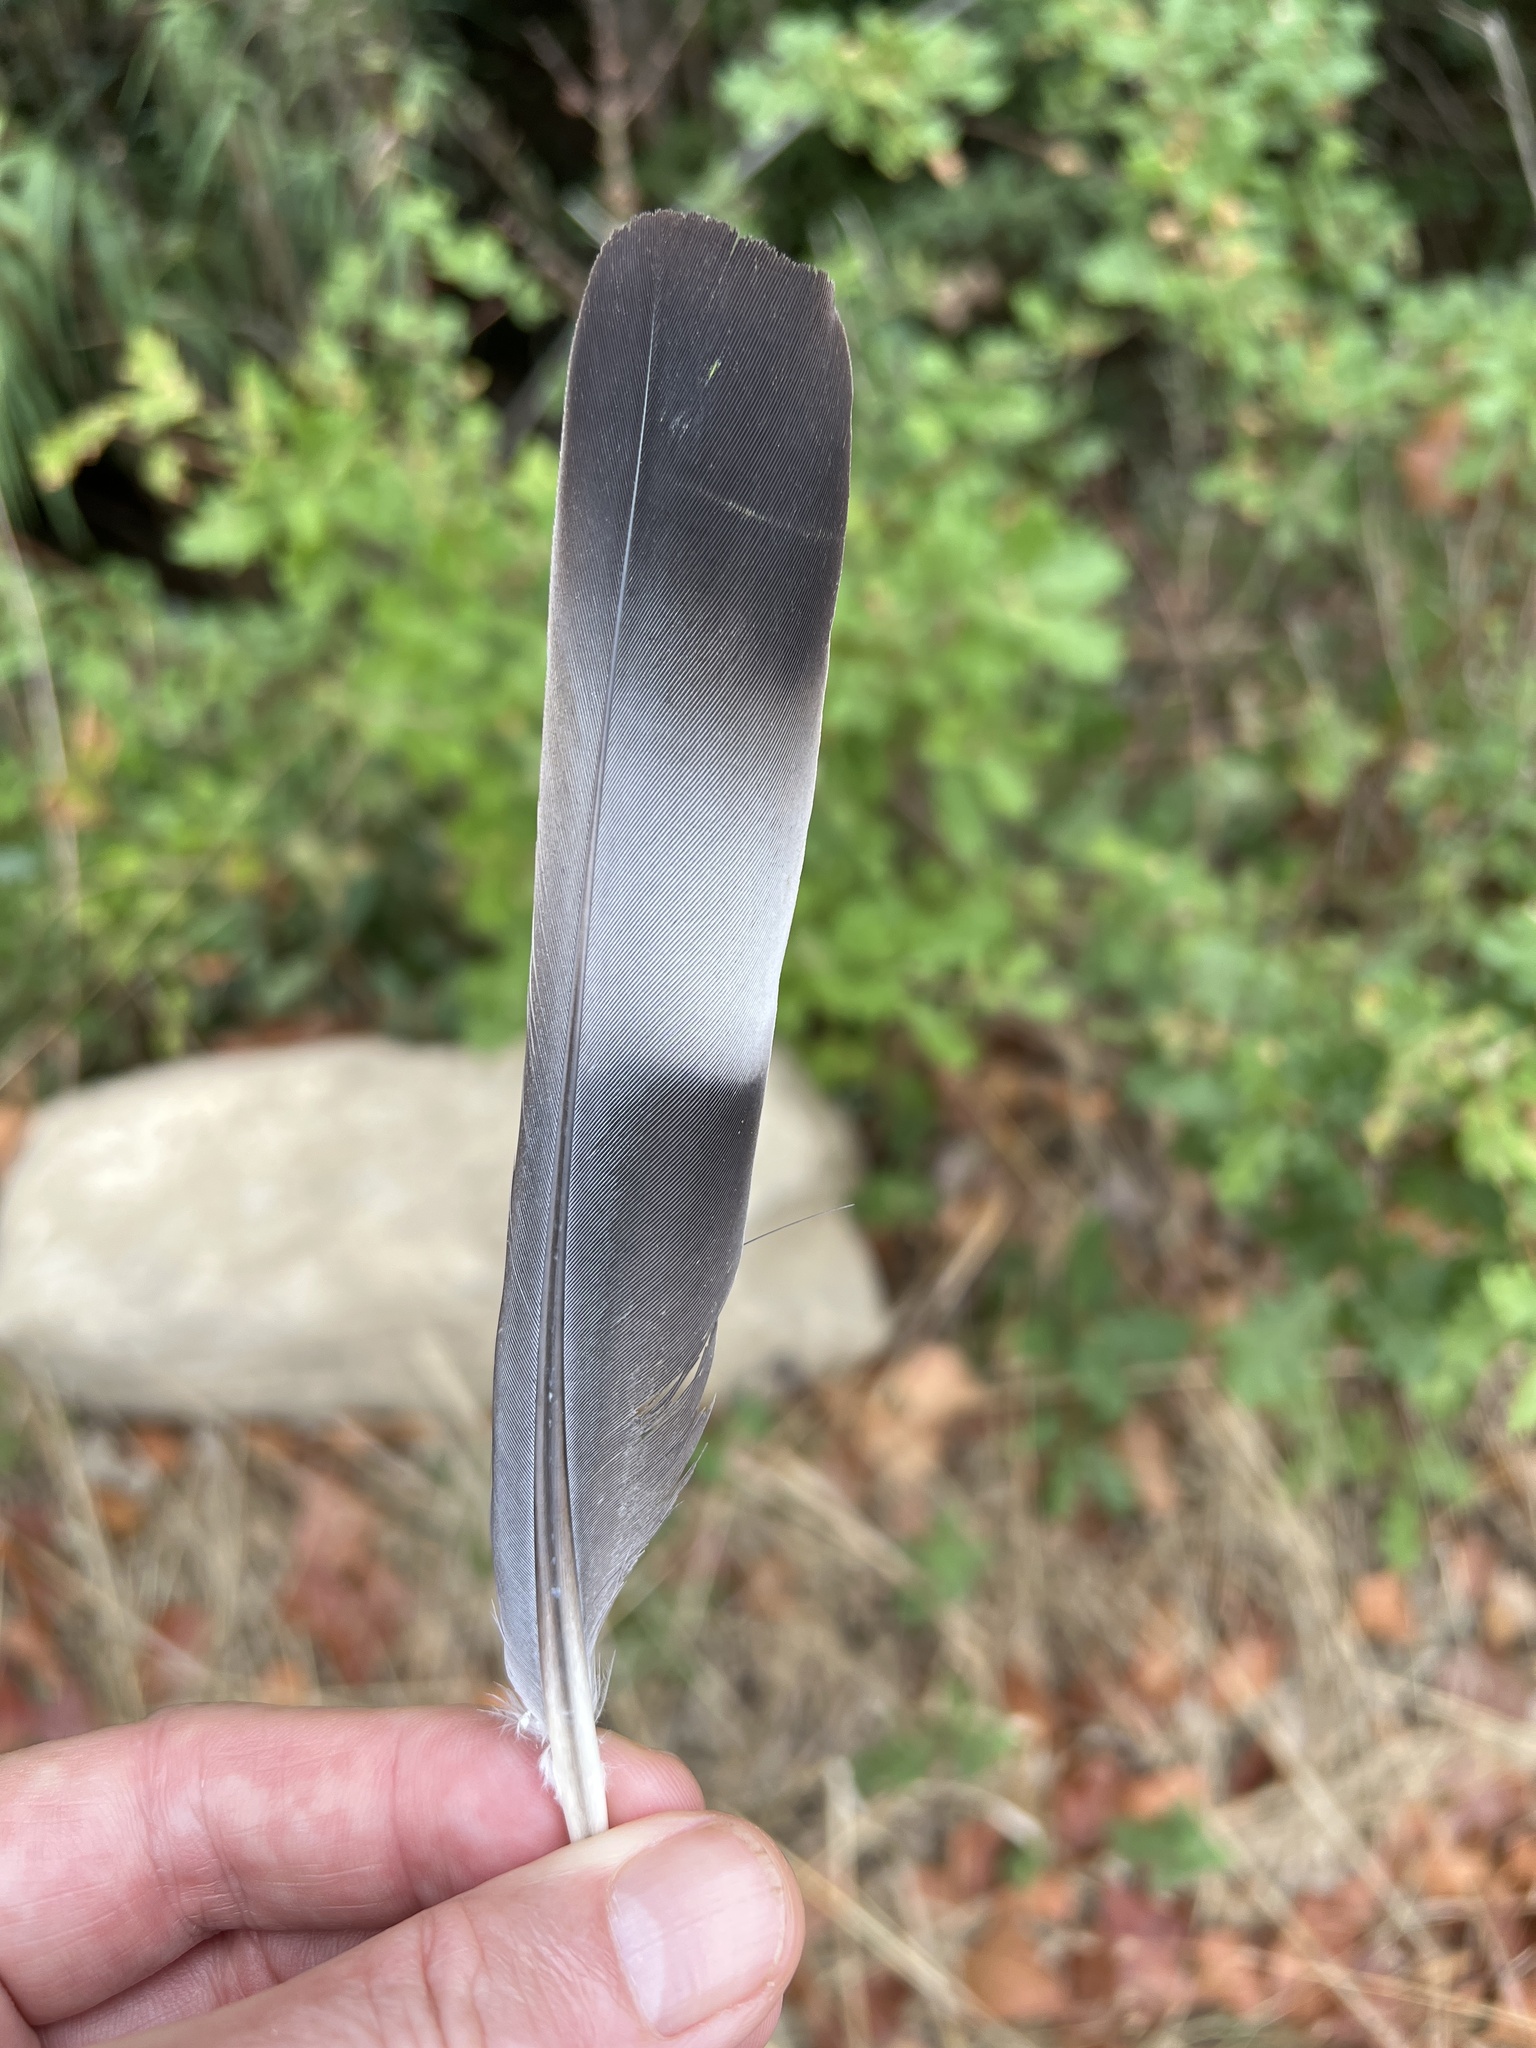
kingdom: Animalia
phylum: Chordata
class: Aves
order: Columbiformes
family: Columbidae
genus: Columba
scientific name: Columba palumbus
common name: Common wood pigeon
